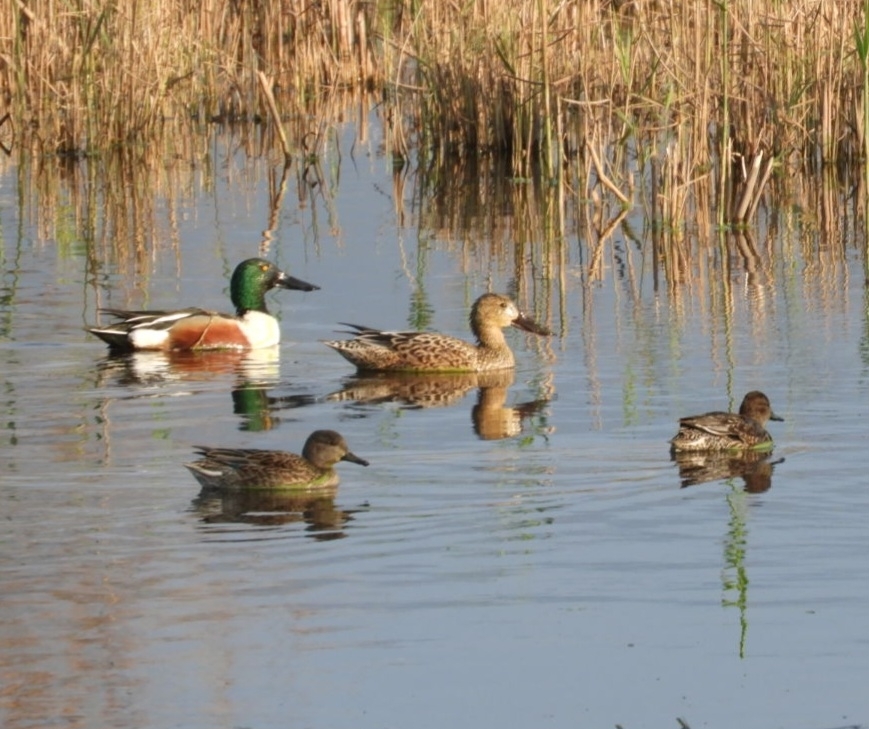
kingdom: Animalia
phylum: Chordata
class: Aves
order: Anseriformes
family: Anatidae
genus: Spatula
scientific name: Spatula clypeata
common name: Northern shoveler
